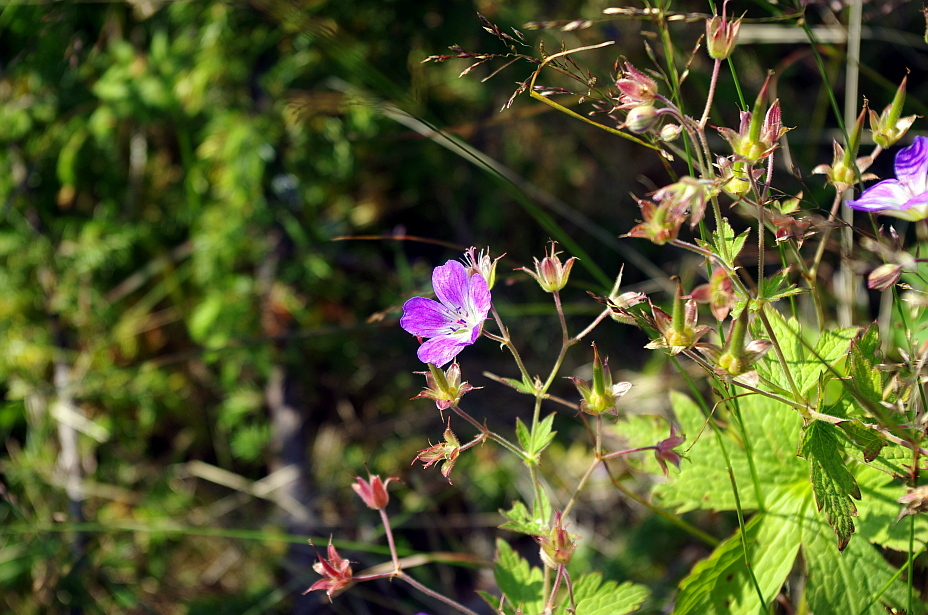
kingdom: Plantae
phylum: Tracheophyta
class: Magnoliopsida
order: Geraniales
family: Geraniaceae
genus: Geranium
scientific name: Geranium sylvaticum
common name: Wood crane's-bill
